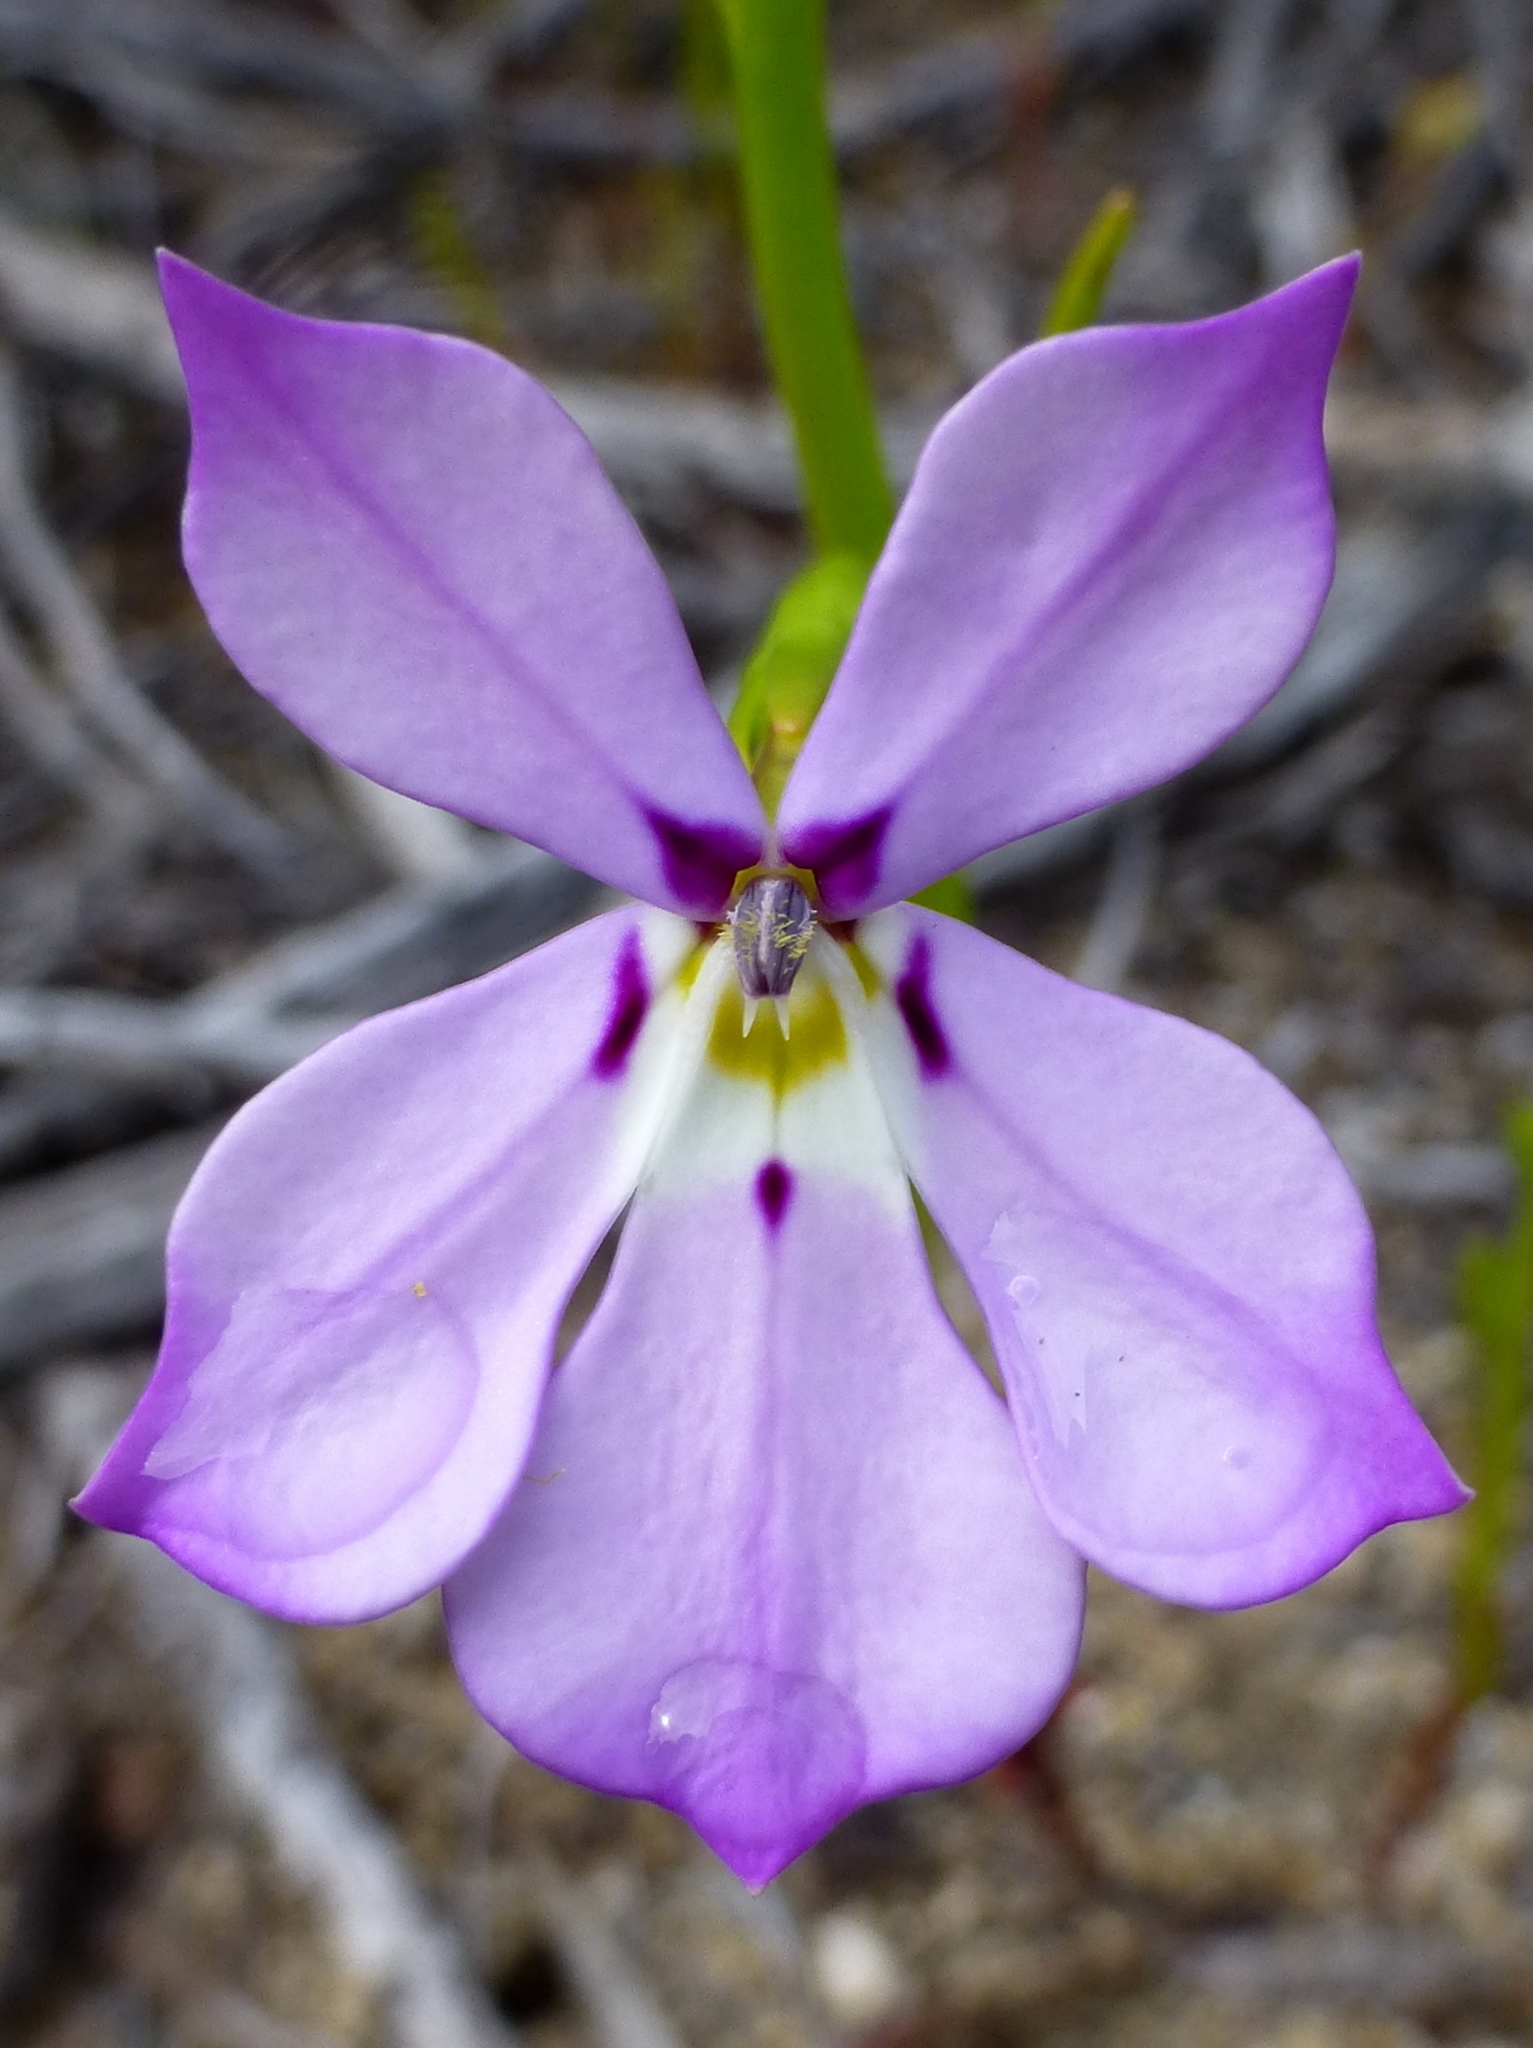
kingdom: Plantae
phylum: Tracheophyta
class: Magnoliopsida
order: Asterales
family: Campanulaceae
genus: Isotoma
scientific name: Isotoma hypocrateriformis
